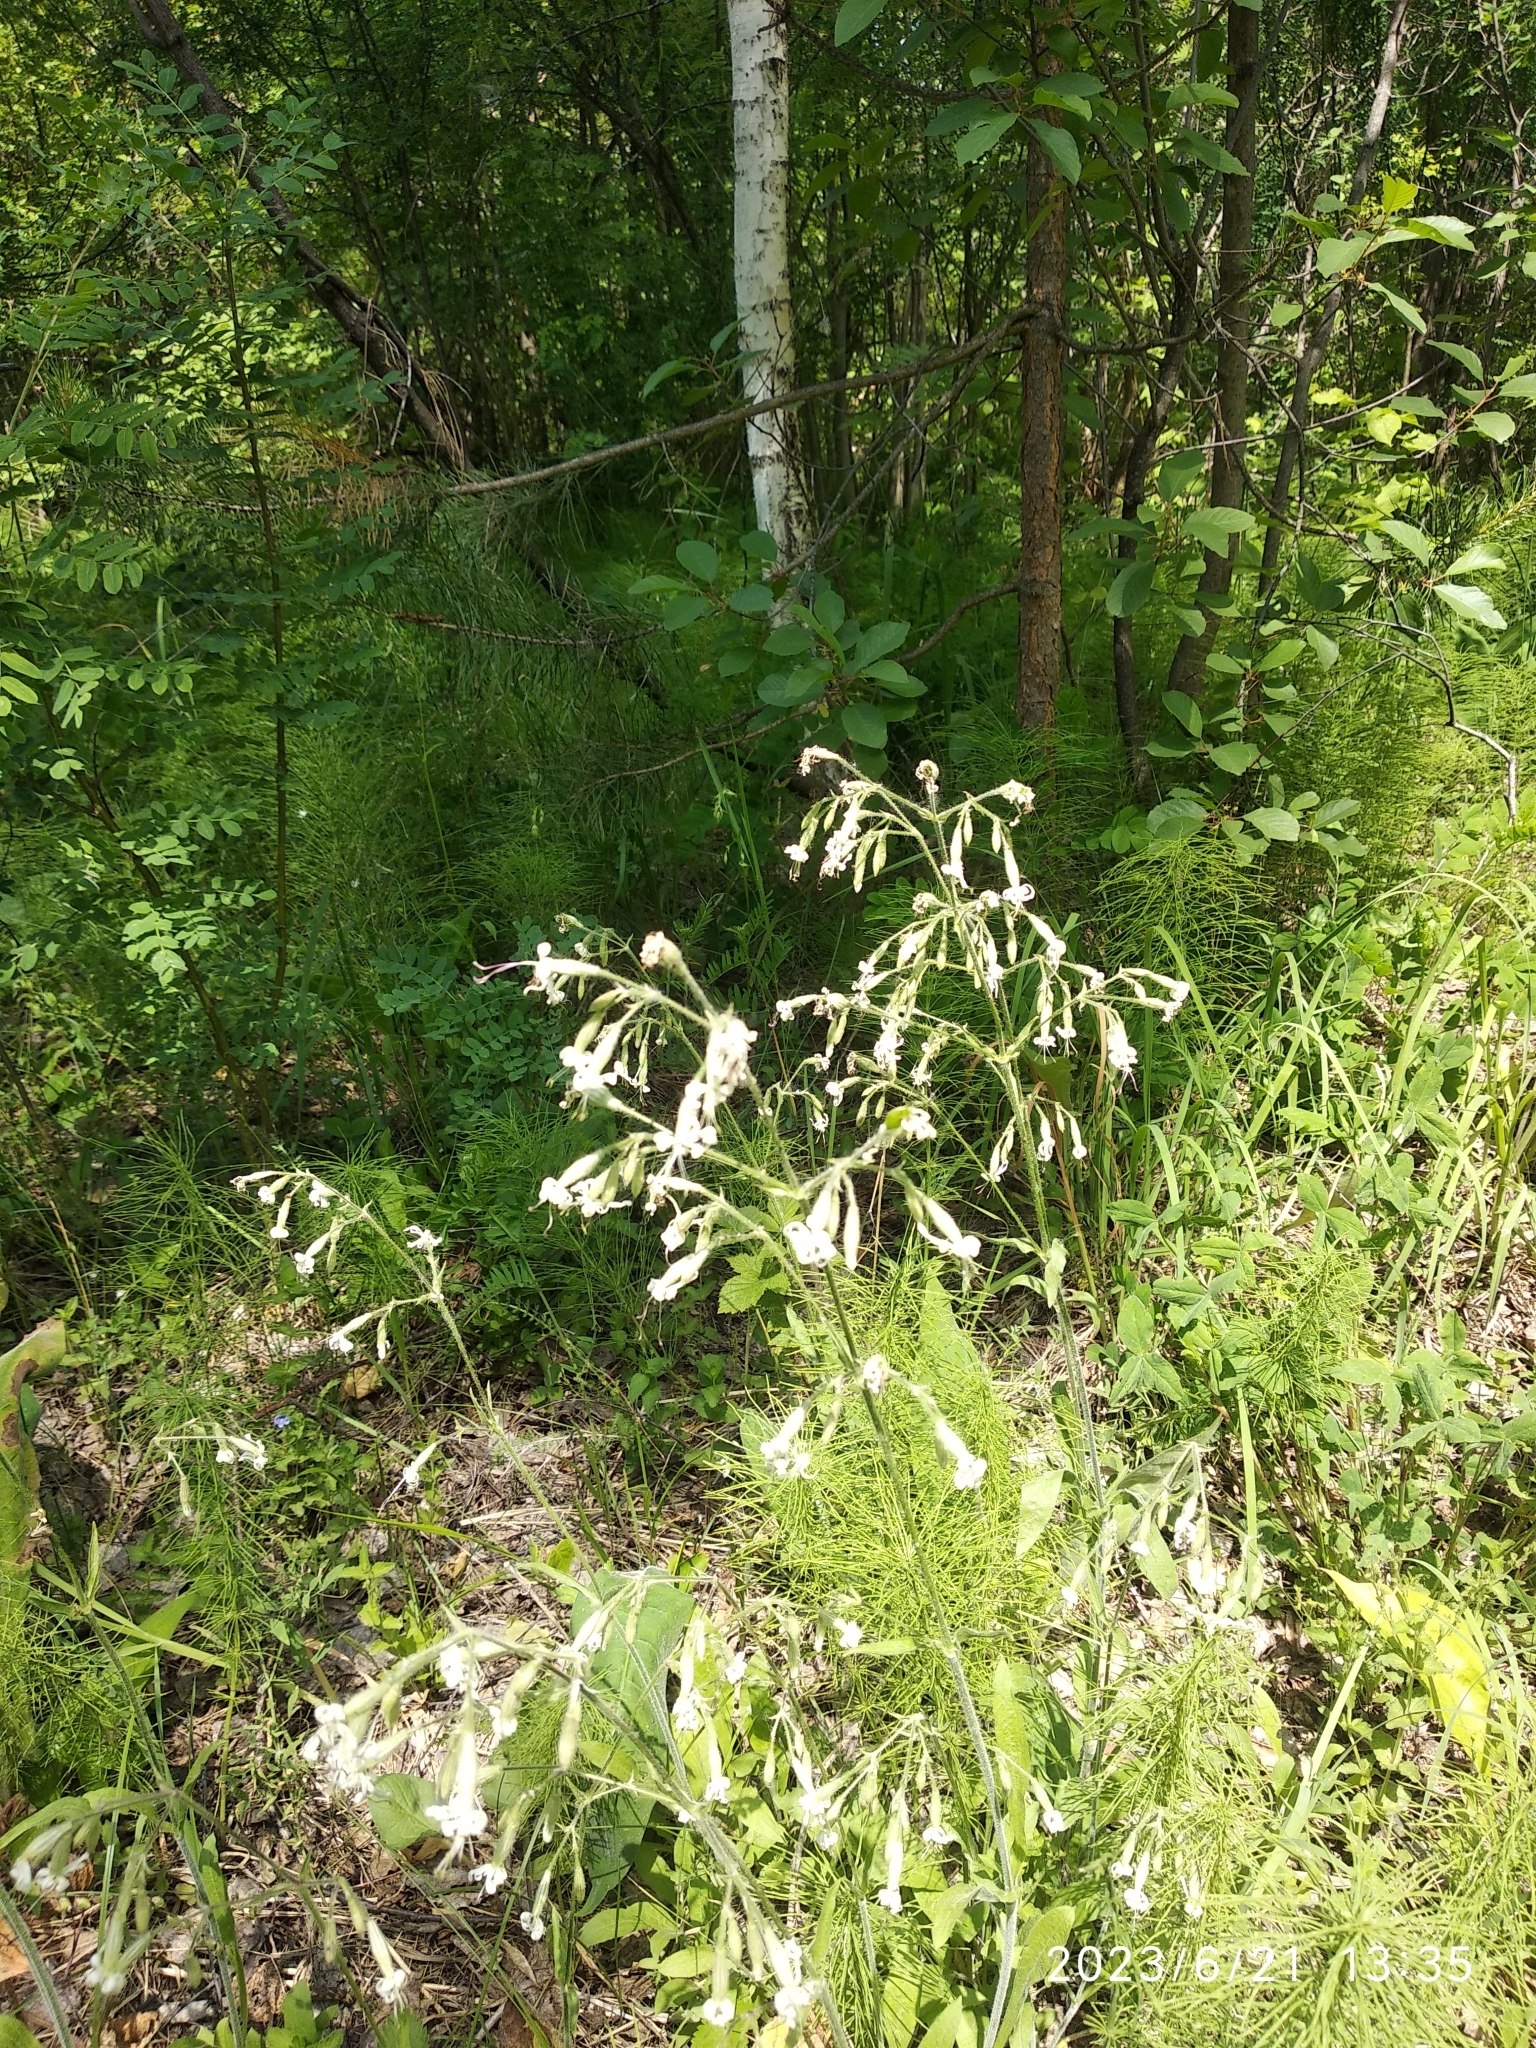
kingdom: Plantae
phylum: Tracheophyta
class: Magnoliopsida
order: Caryophyllales
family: Caryophyllaceae
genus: Silene
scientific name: Silene nutans
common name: Nottingham catchfly
